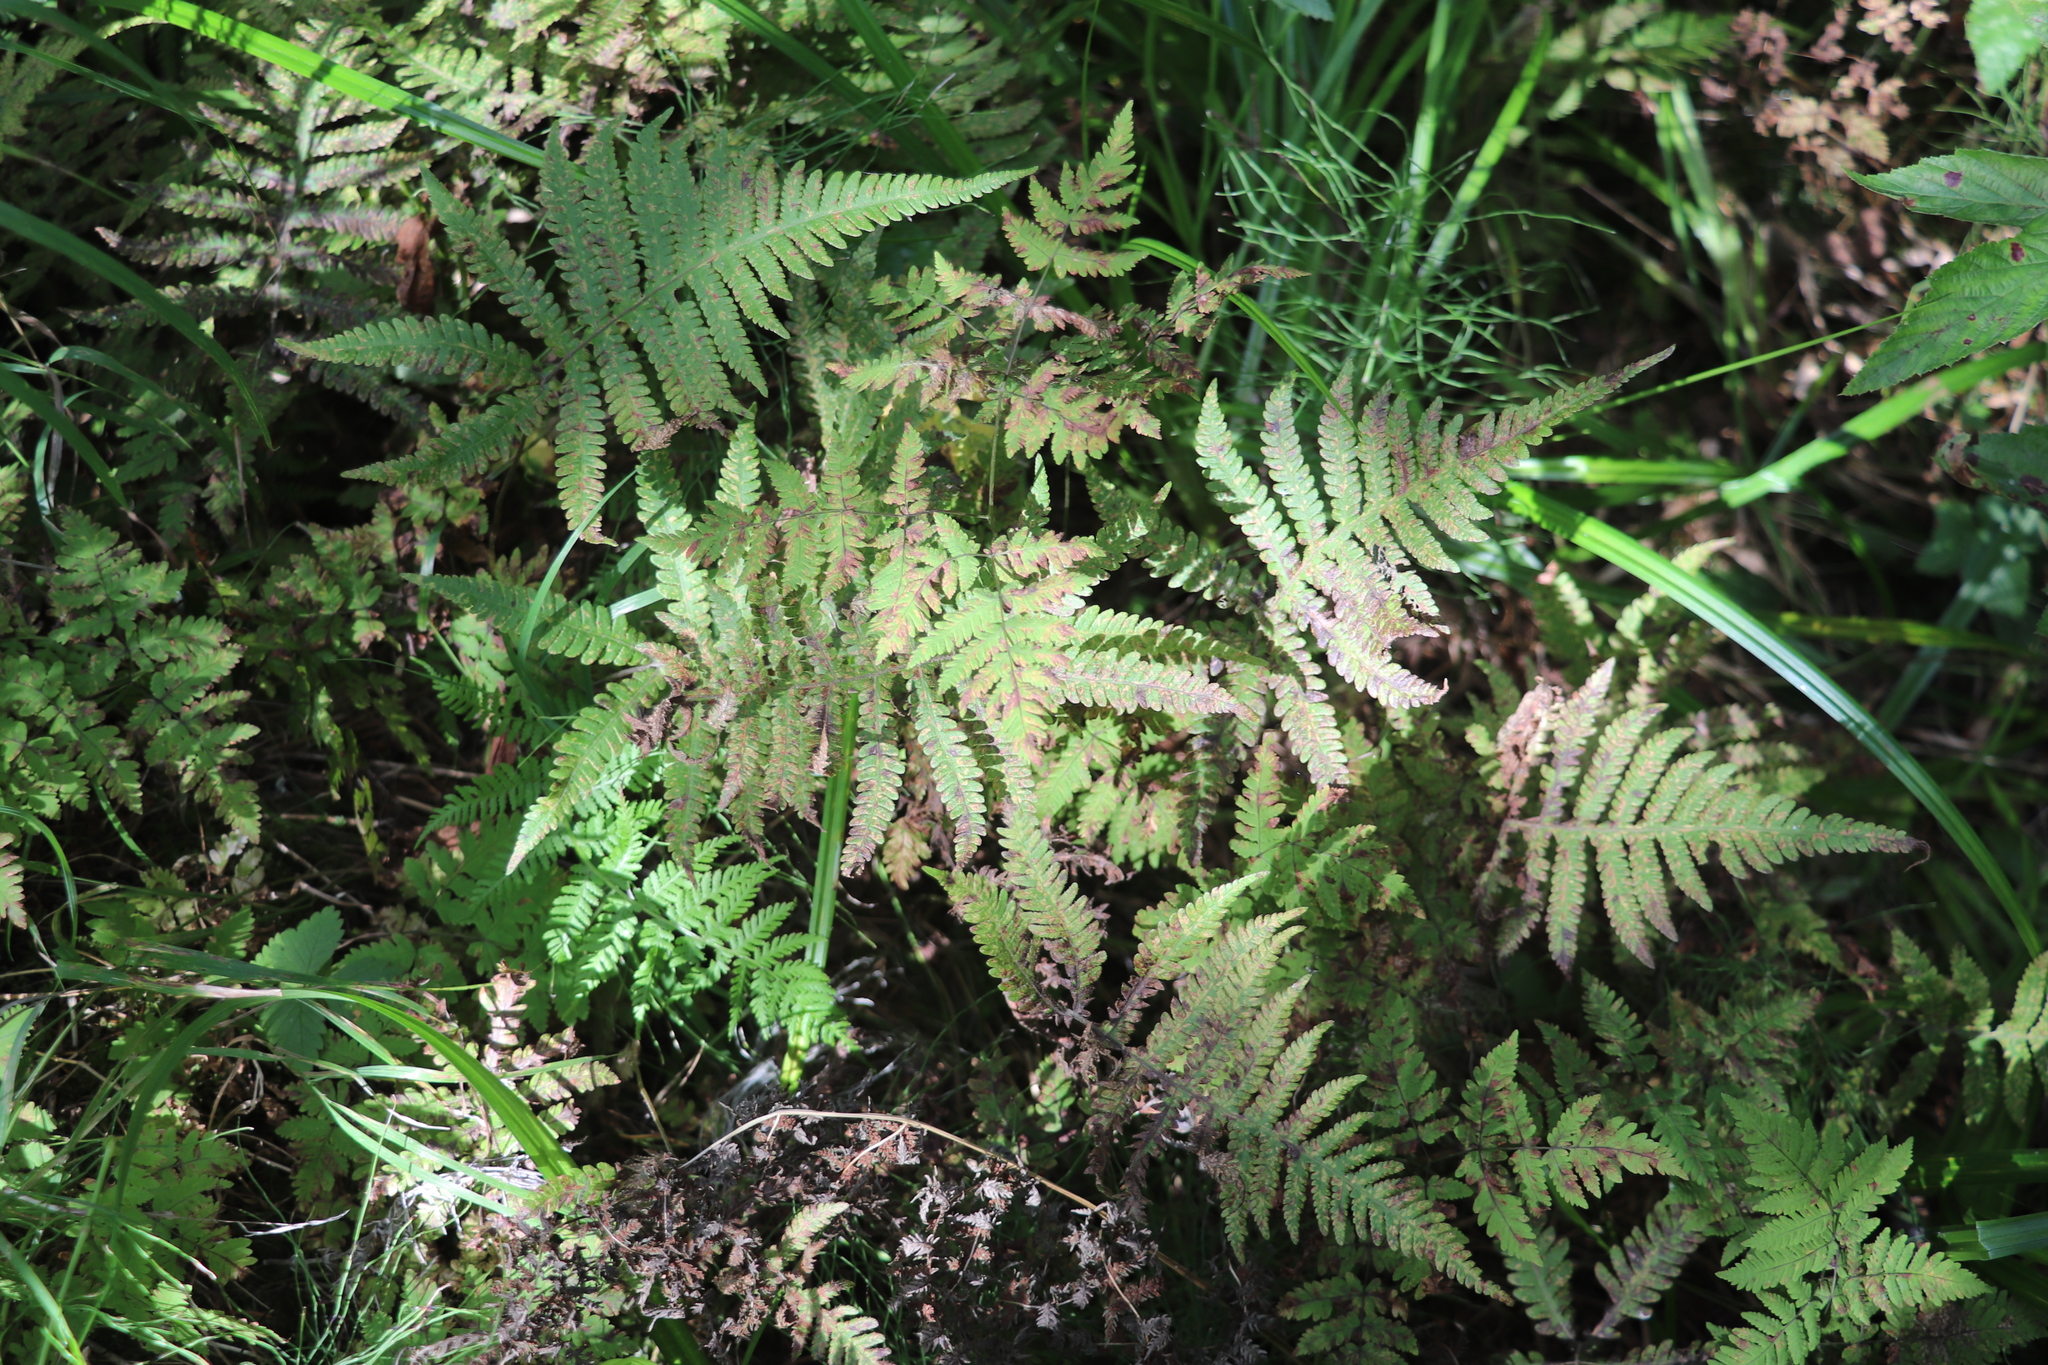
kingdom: Plantae
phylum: Tracheophyta
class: Polypodiopsida
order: Polypodiales
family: Thelypteridaceae
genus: Phegopteris
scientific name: Phegopteris connectilis
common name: Beech fern
